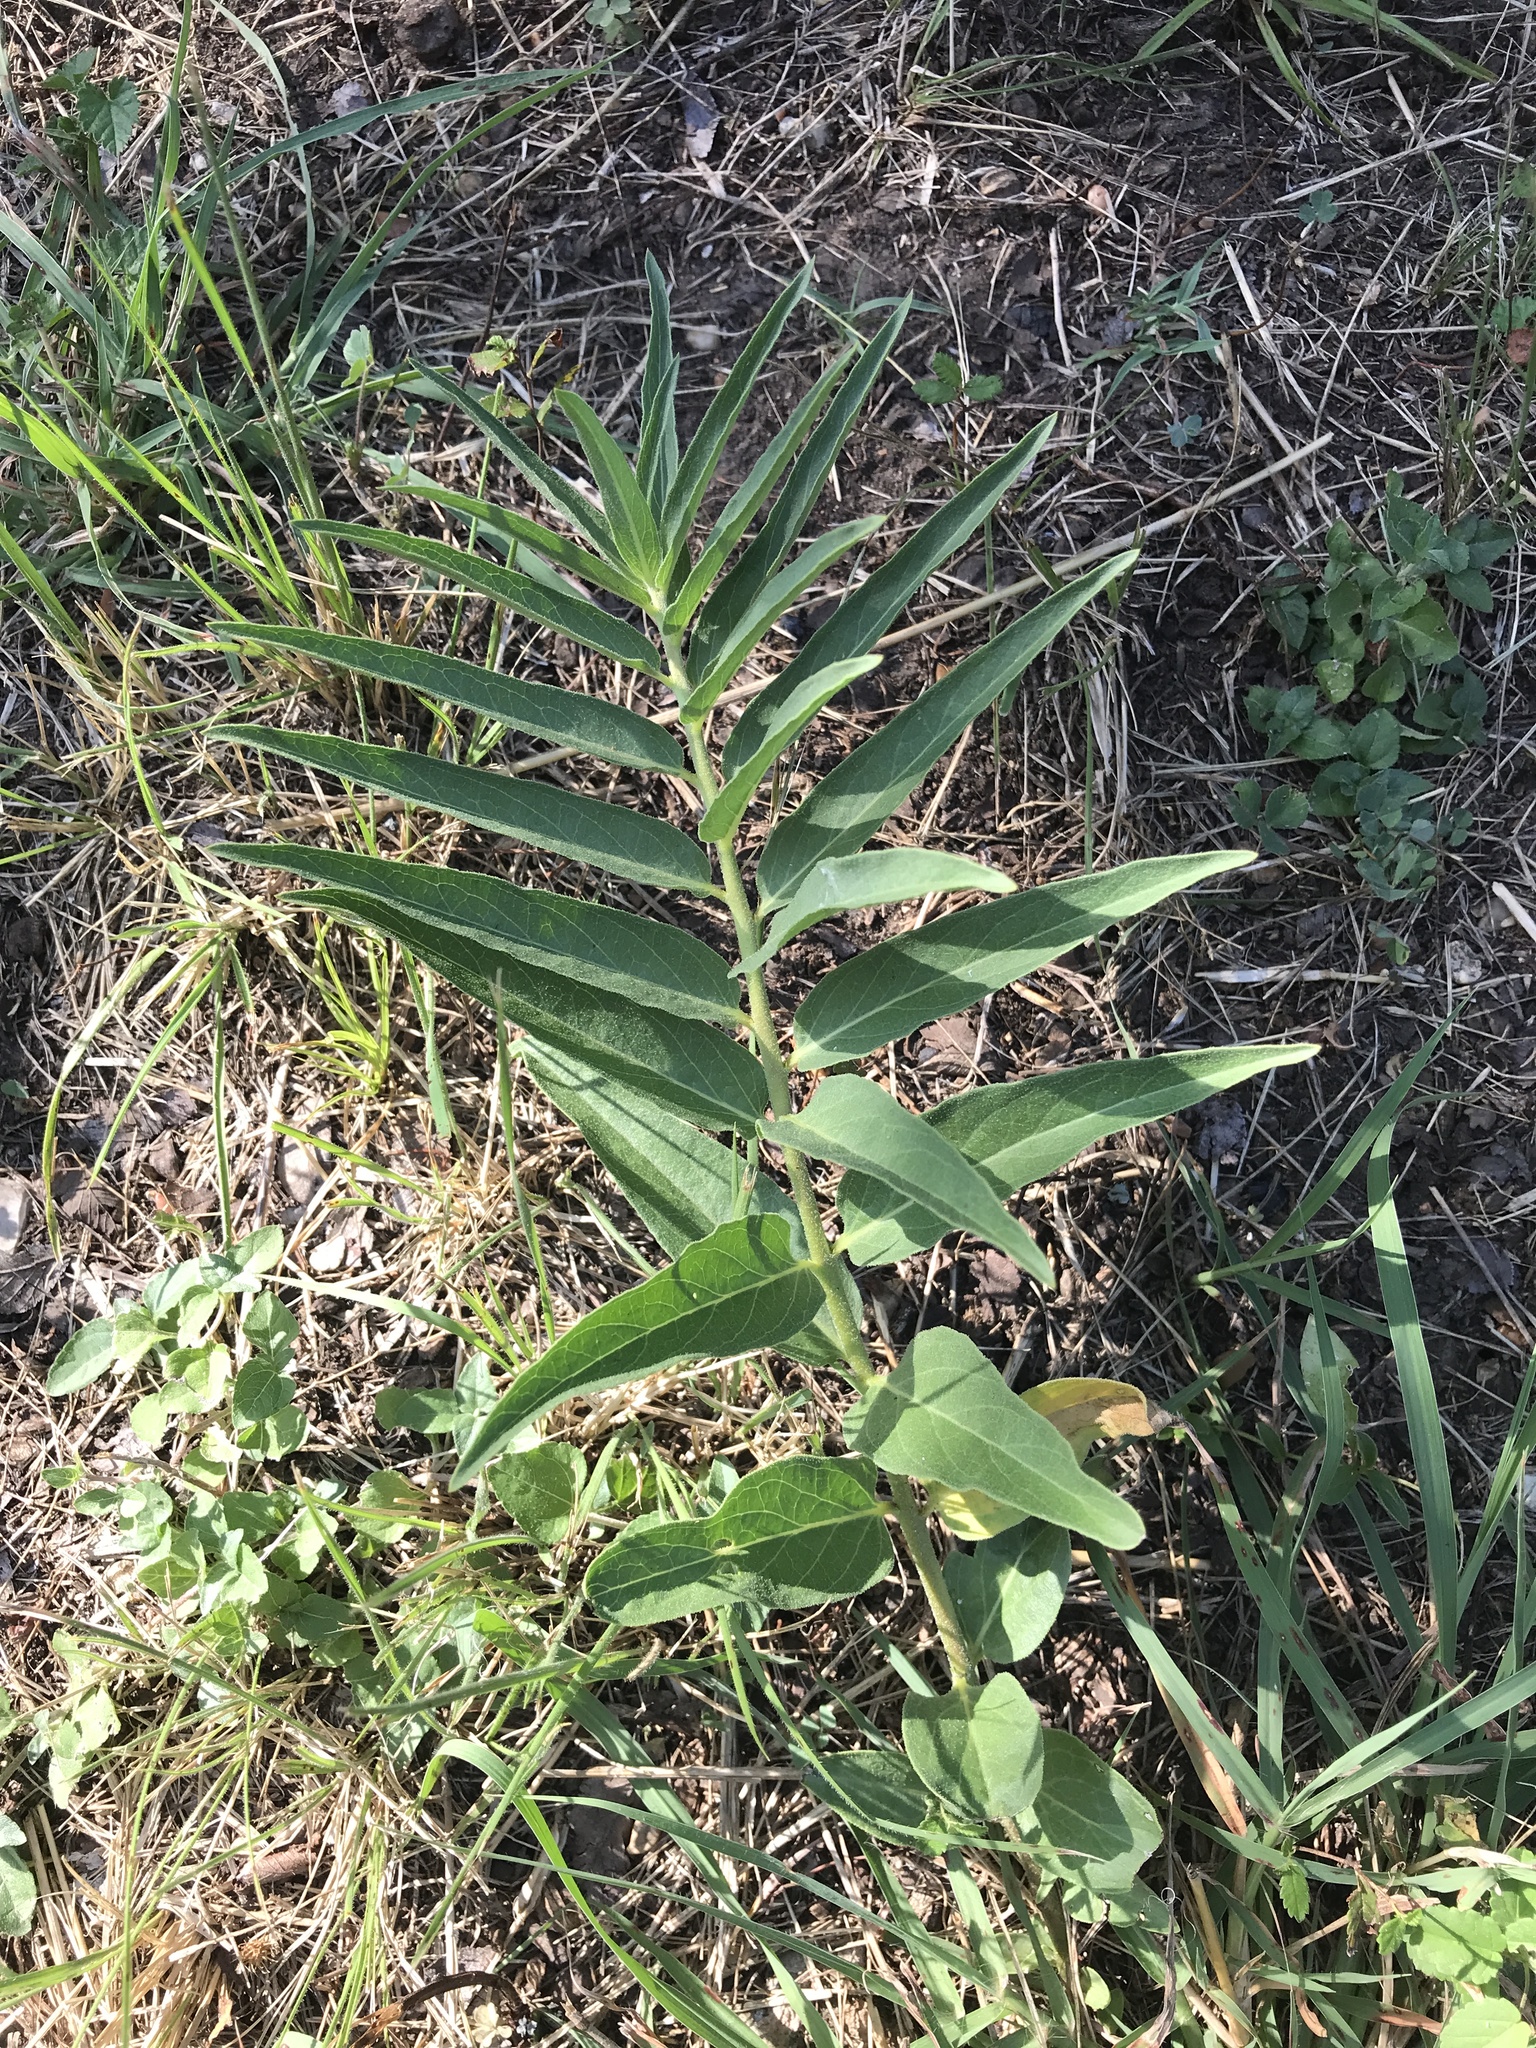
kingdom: Plantae
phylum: Tracheophyta
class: Magnoliopsida
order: Gentianales
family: Apocynaceae
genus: Asclepias
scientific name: Asclepias asperula
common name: Antelope horns
